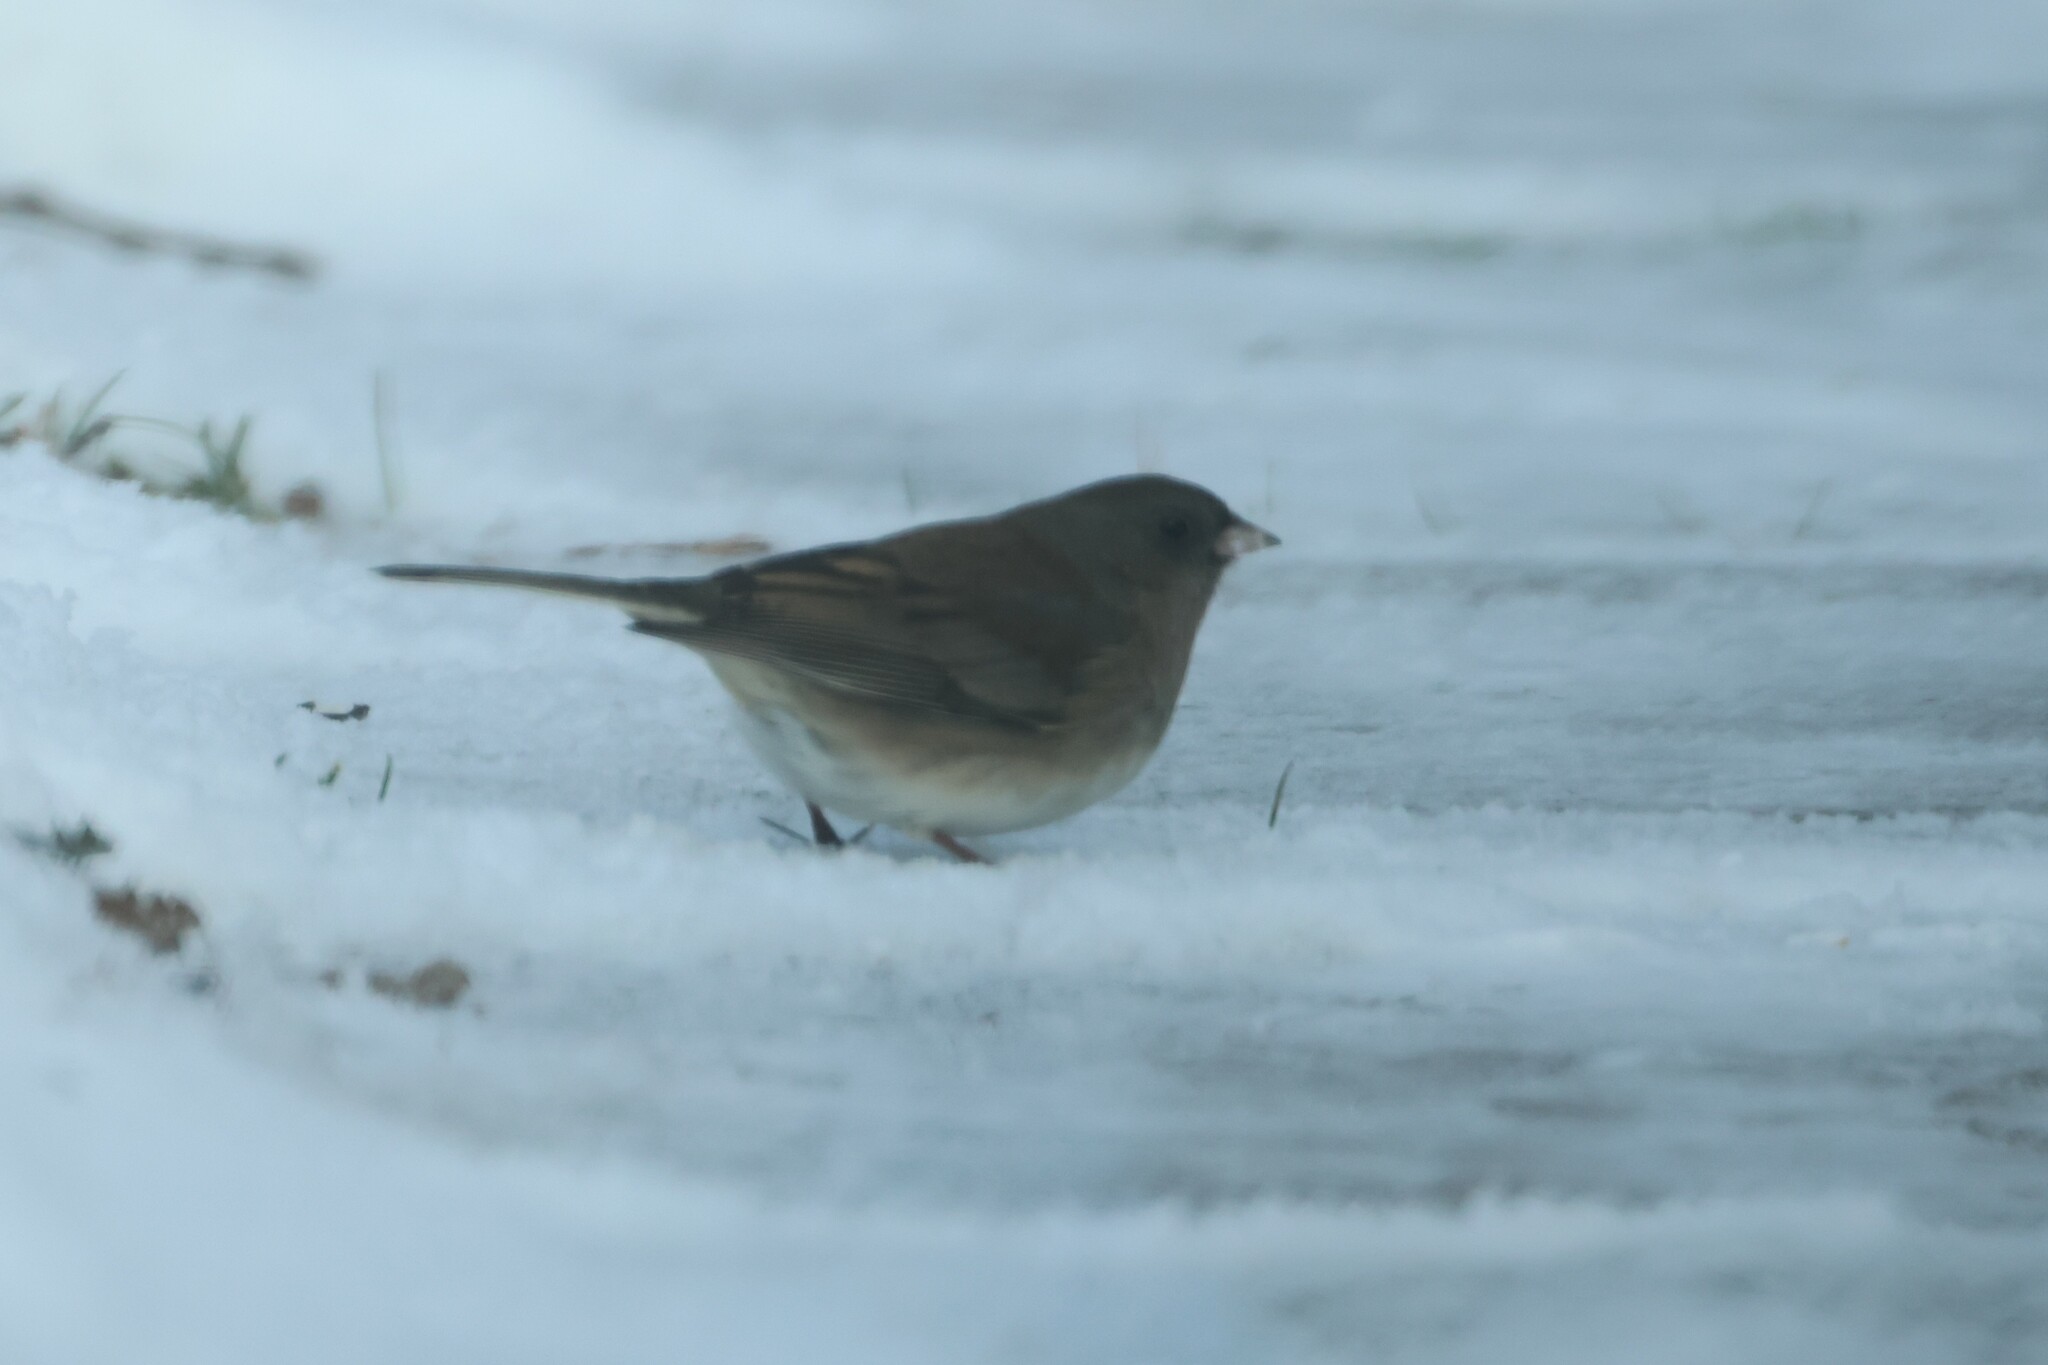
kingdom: Animalia
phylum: Chordata
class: Aves
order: Passeriformes
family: Passerellidae
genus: Junco
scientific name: Junco hyemalis
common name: Dark-eyed junco
